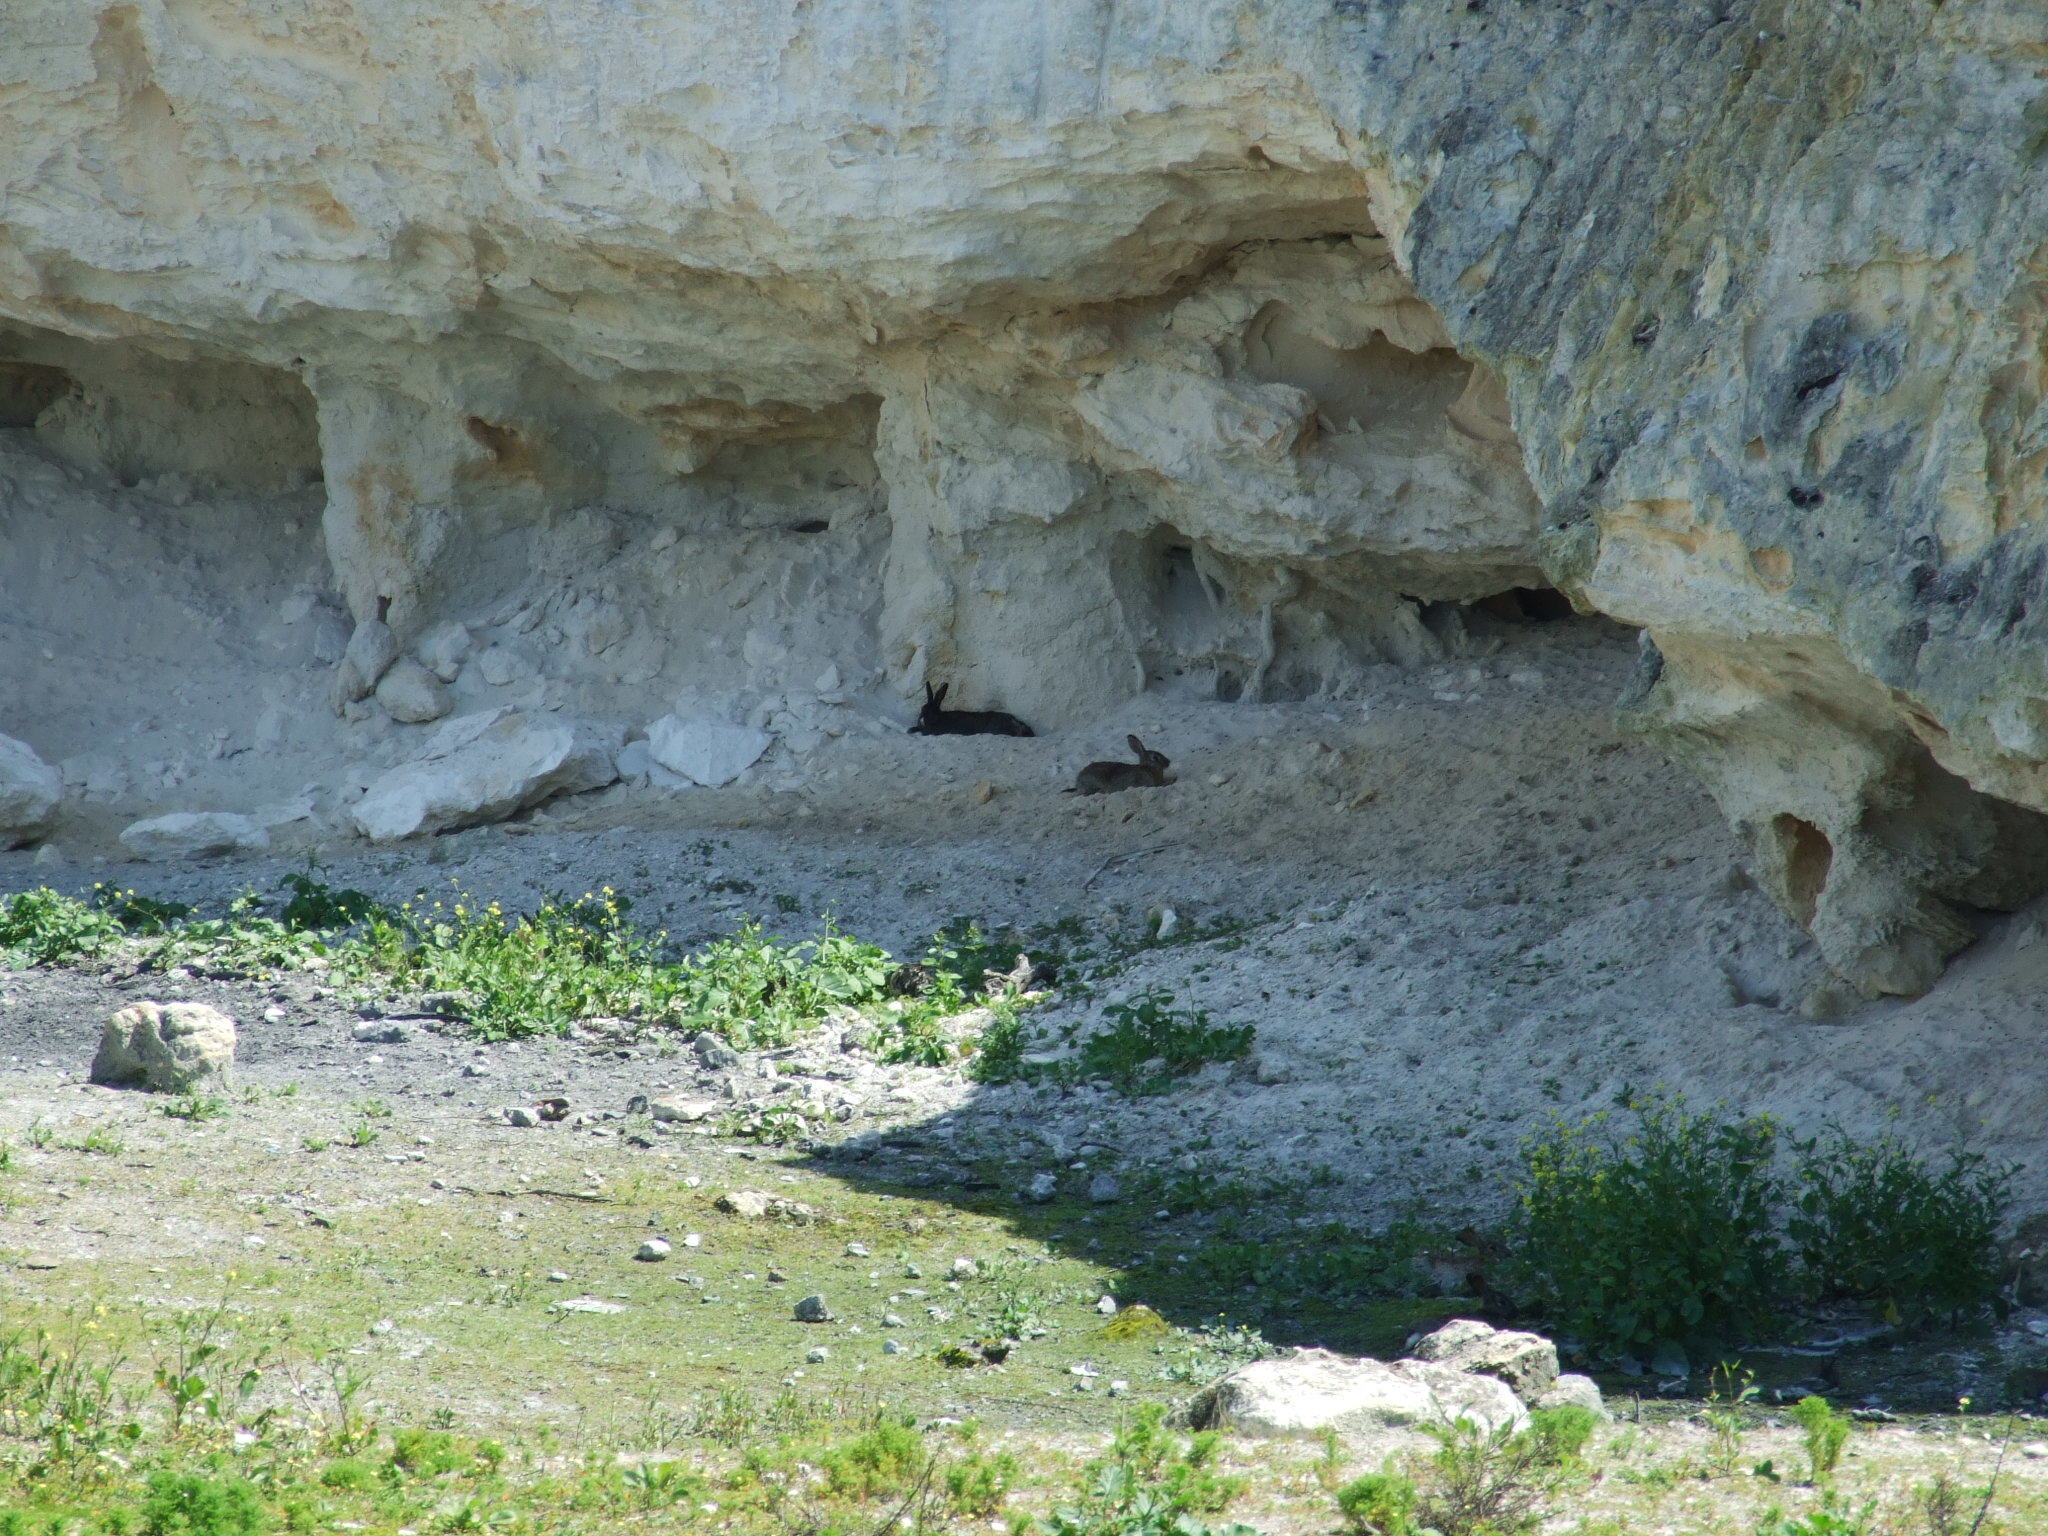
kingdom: Animalia
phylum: Chordata
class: Mammalia
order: Lagomorpha
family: Leporidae
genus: Oryctolagus
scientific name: Oryctolagus cuniculus
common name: European rabbit
